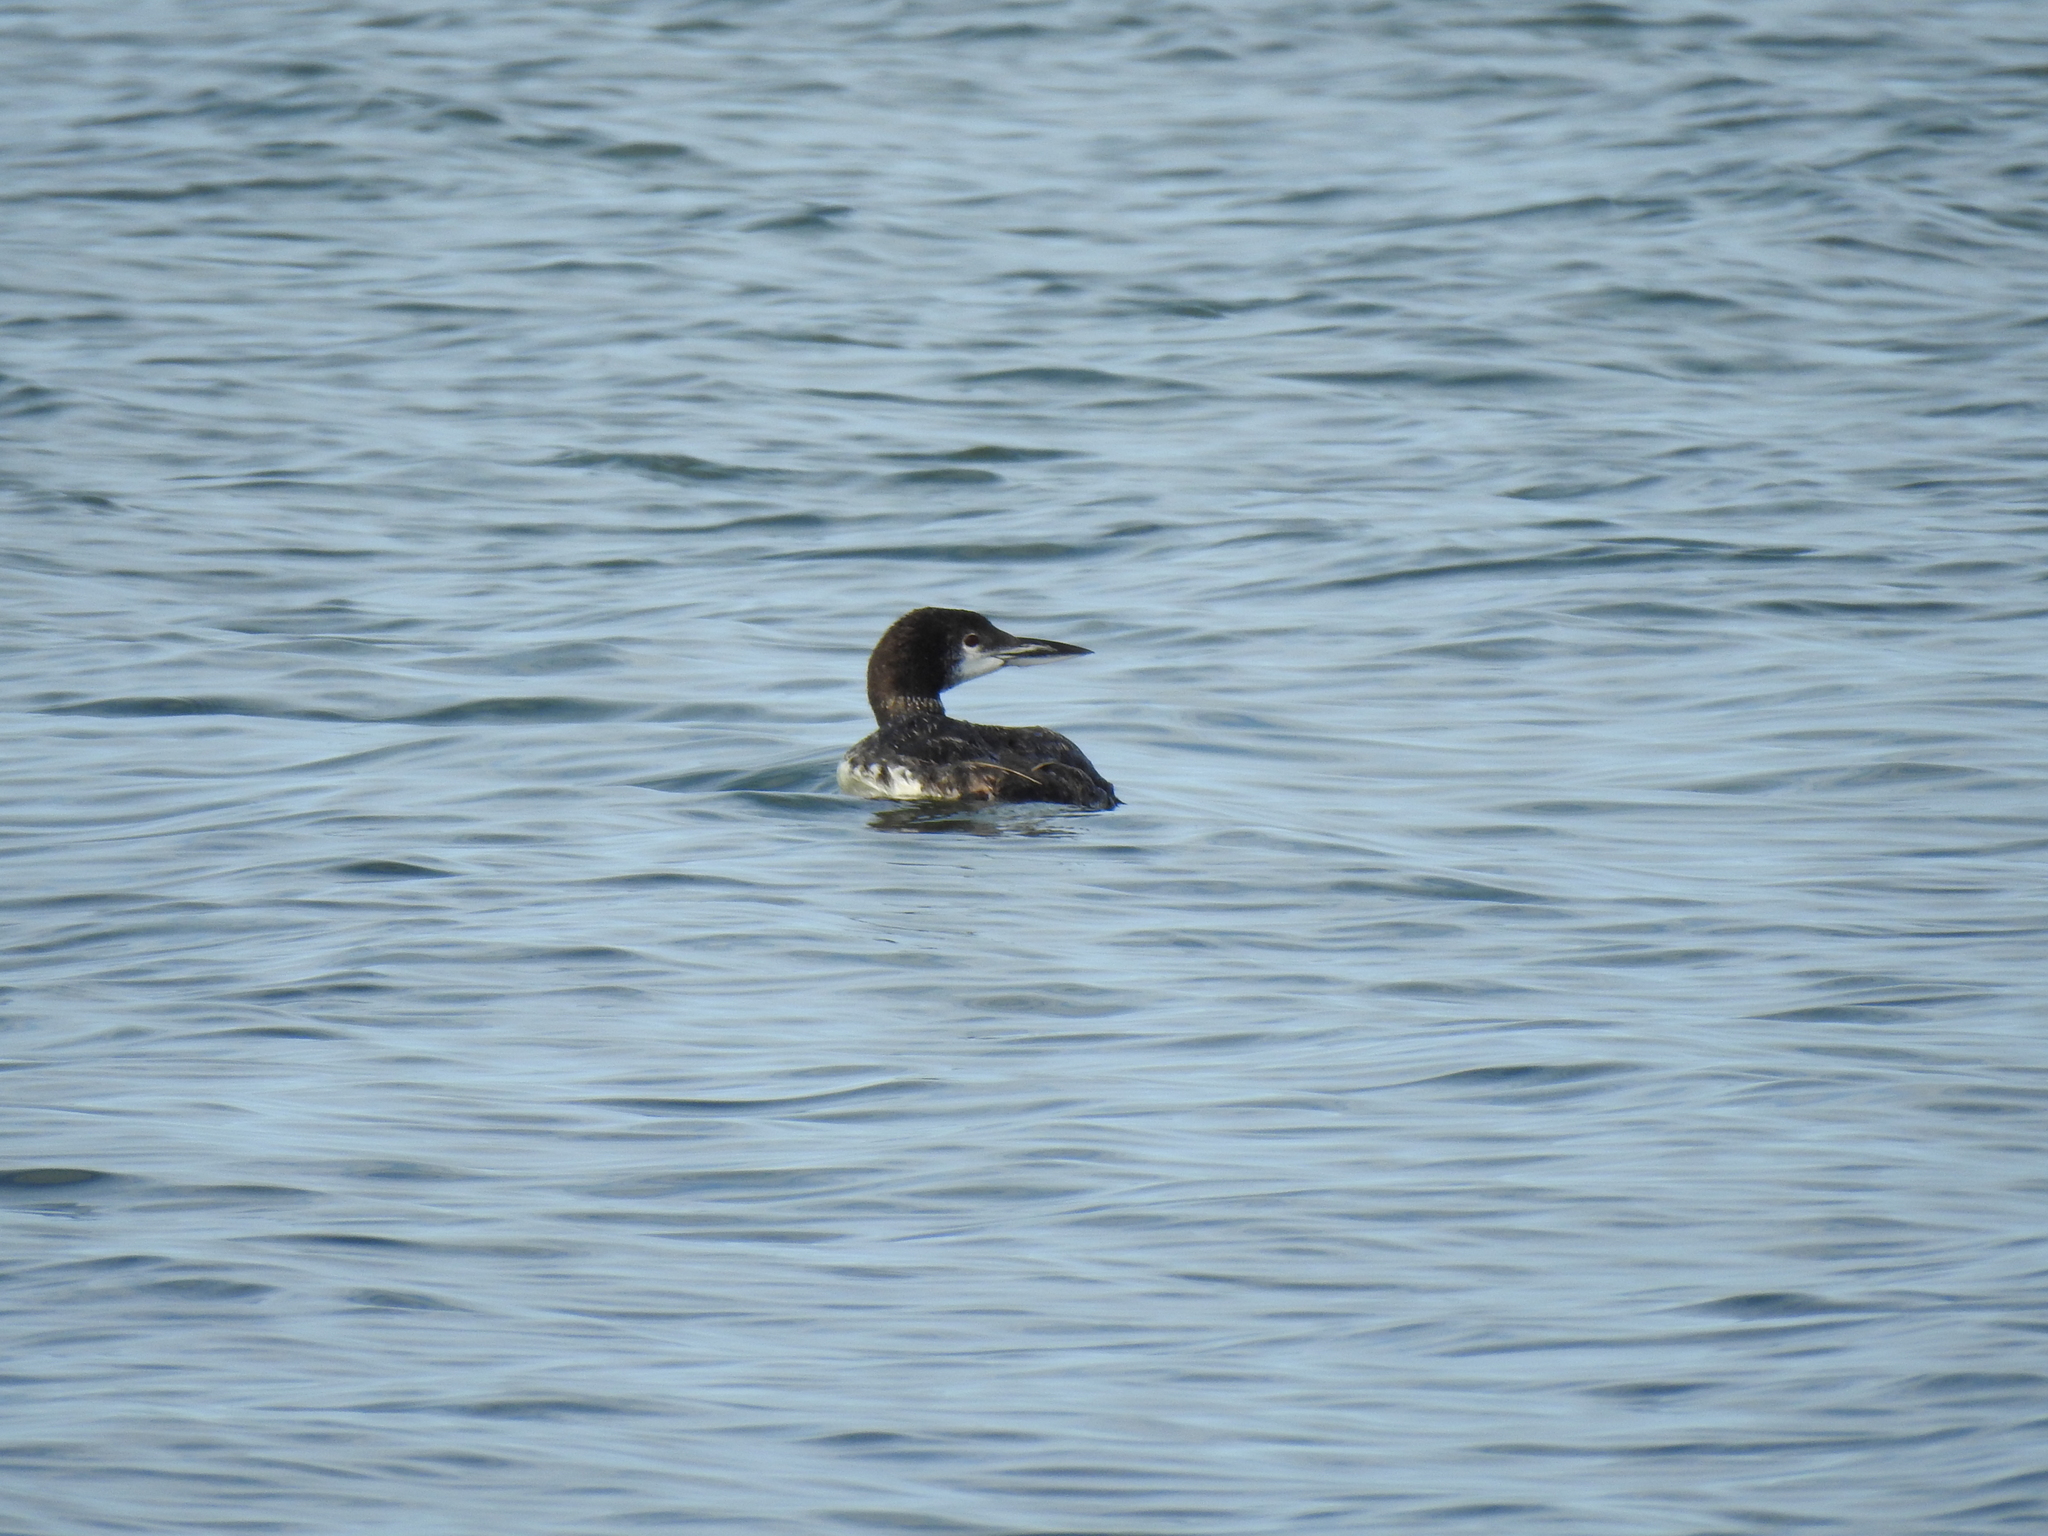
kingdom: Animalia
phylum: Chordata
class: Aves
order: Gaviiformes
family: Gaviidae
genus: Gavia
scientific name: Gavia immer
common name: Common loon
